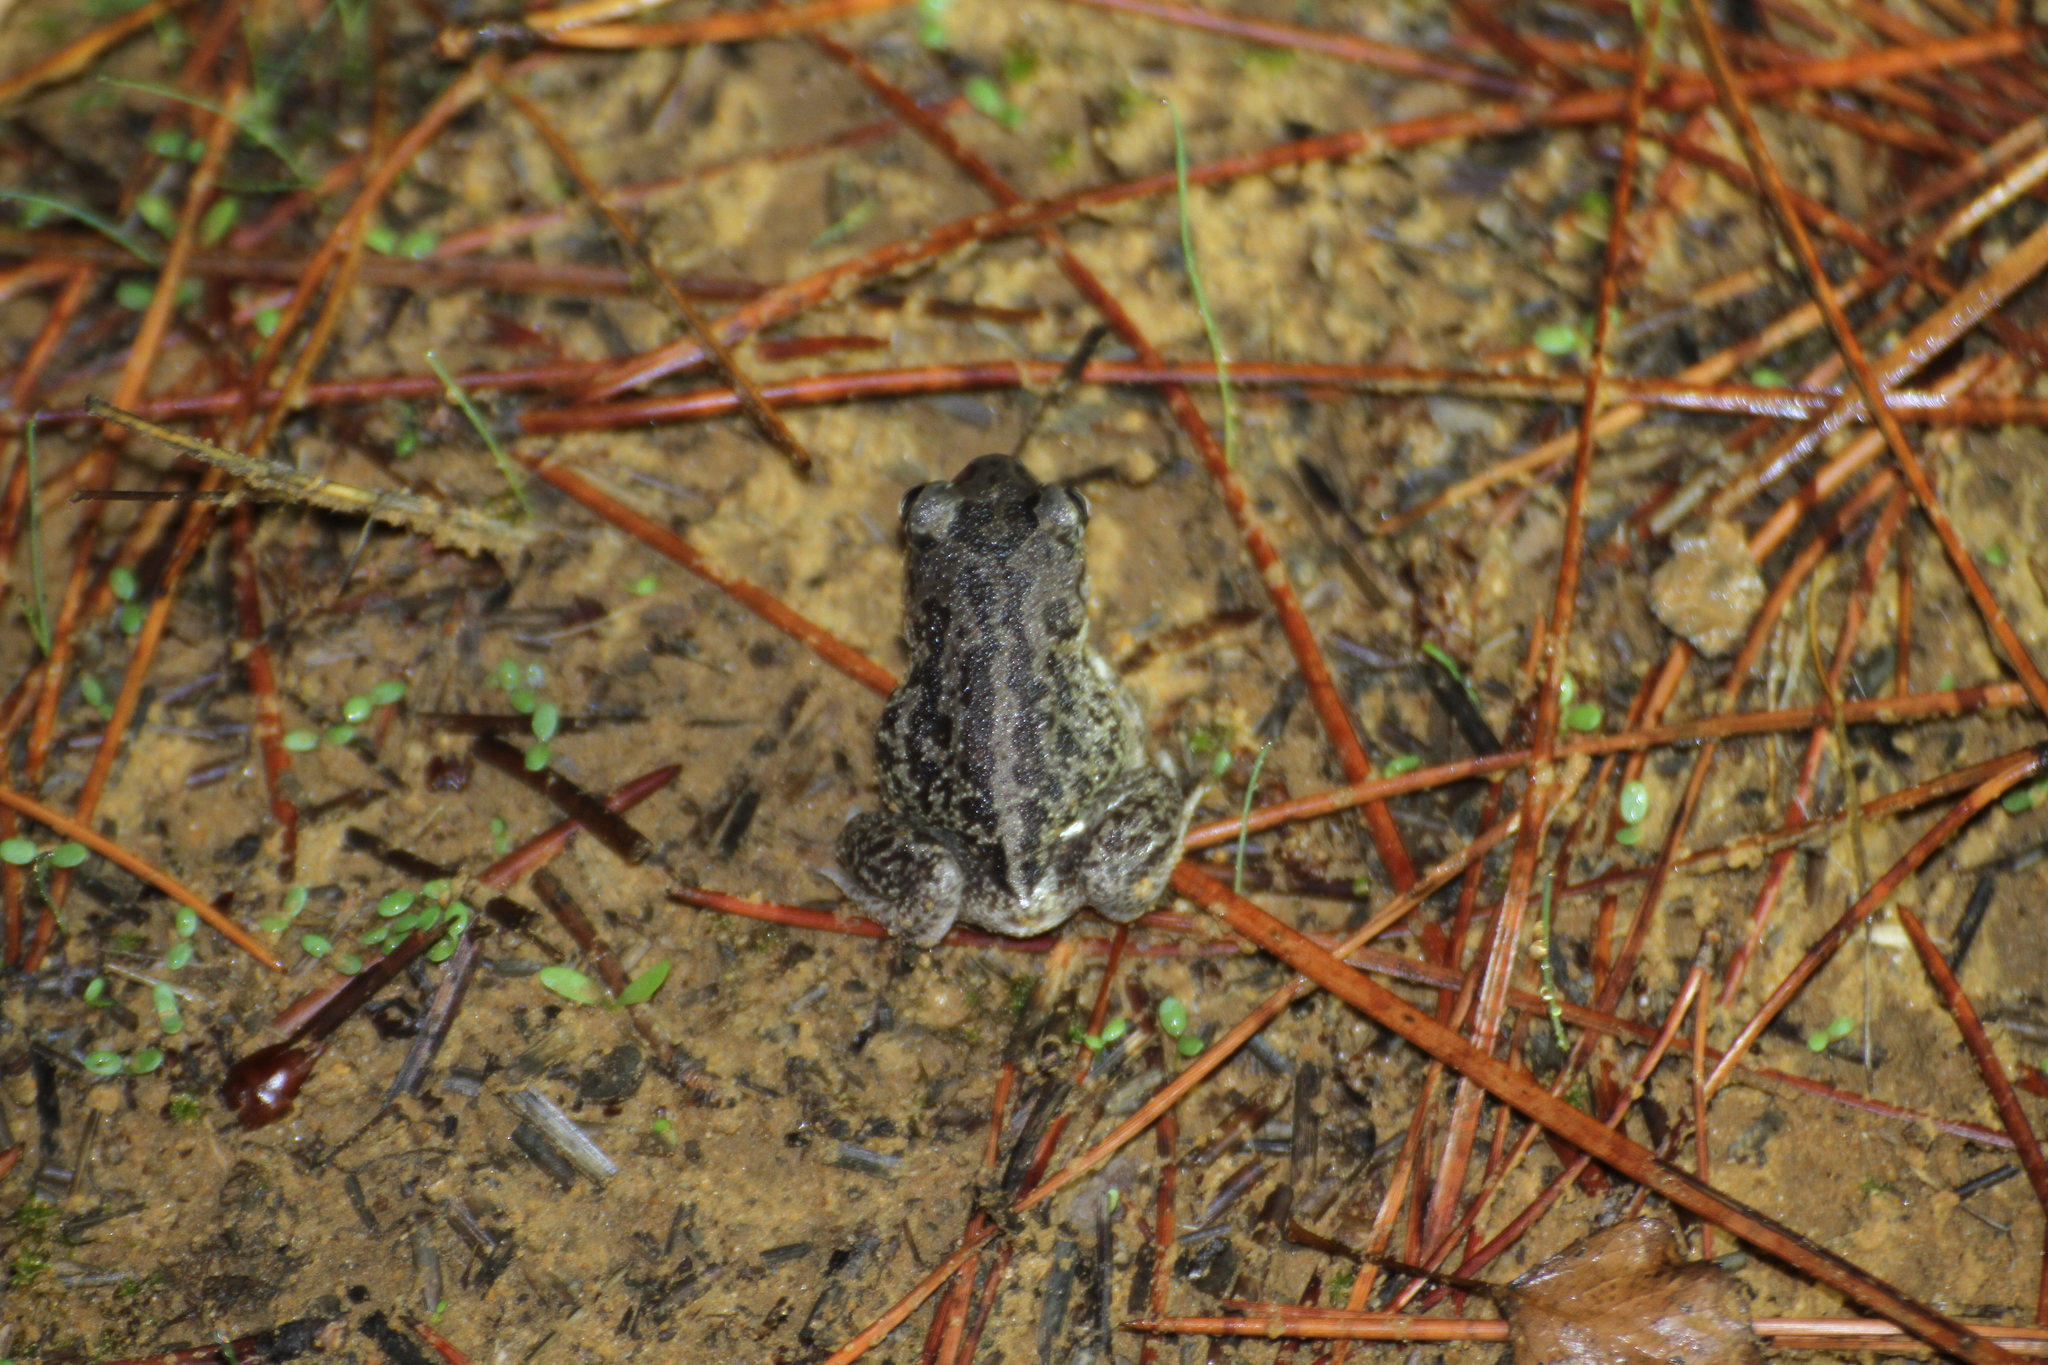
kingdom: Animalia
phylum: Chordata
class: Amphibia
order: Anura
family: Pelobatidae
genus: Pelobates
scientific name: Pelobates cultripes
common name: Western spadefoot
